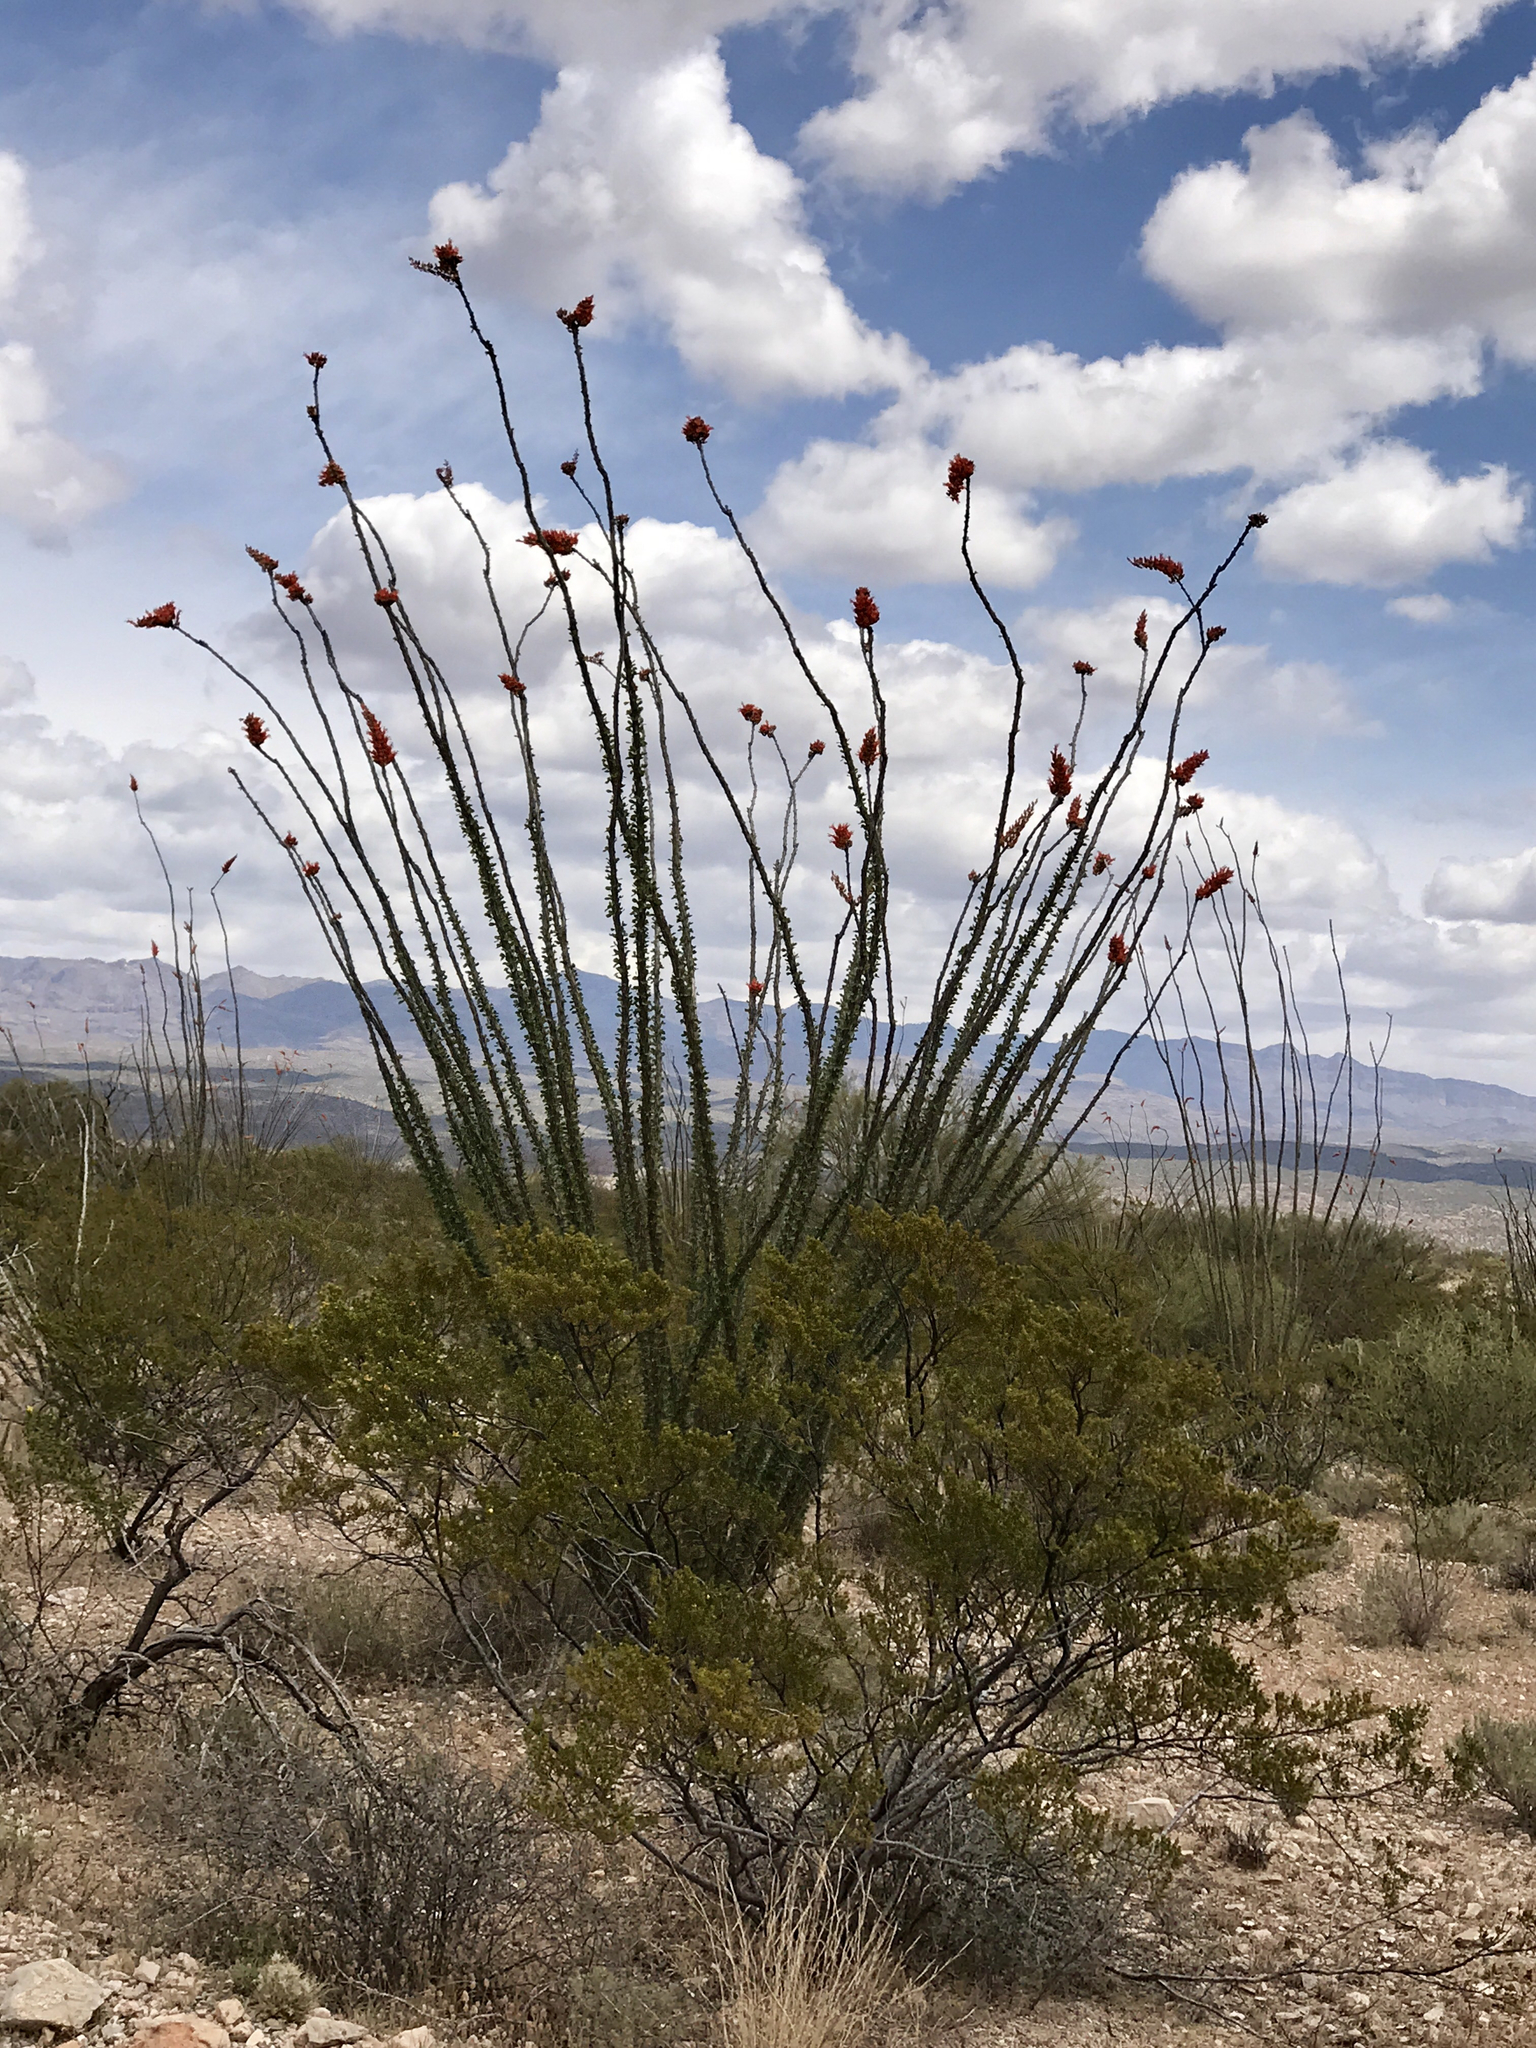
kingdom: Plantae
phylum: Tracheophyta
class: Magnoliopsida
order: Ericales
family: Fouquieriaceae
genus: Fouquieria
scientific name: Fouquieria splendens
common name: Vine-cactus
